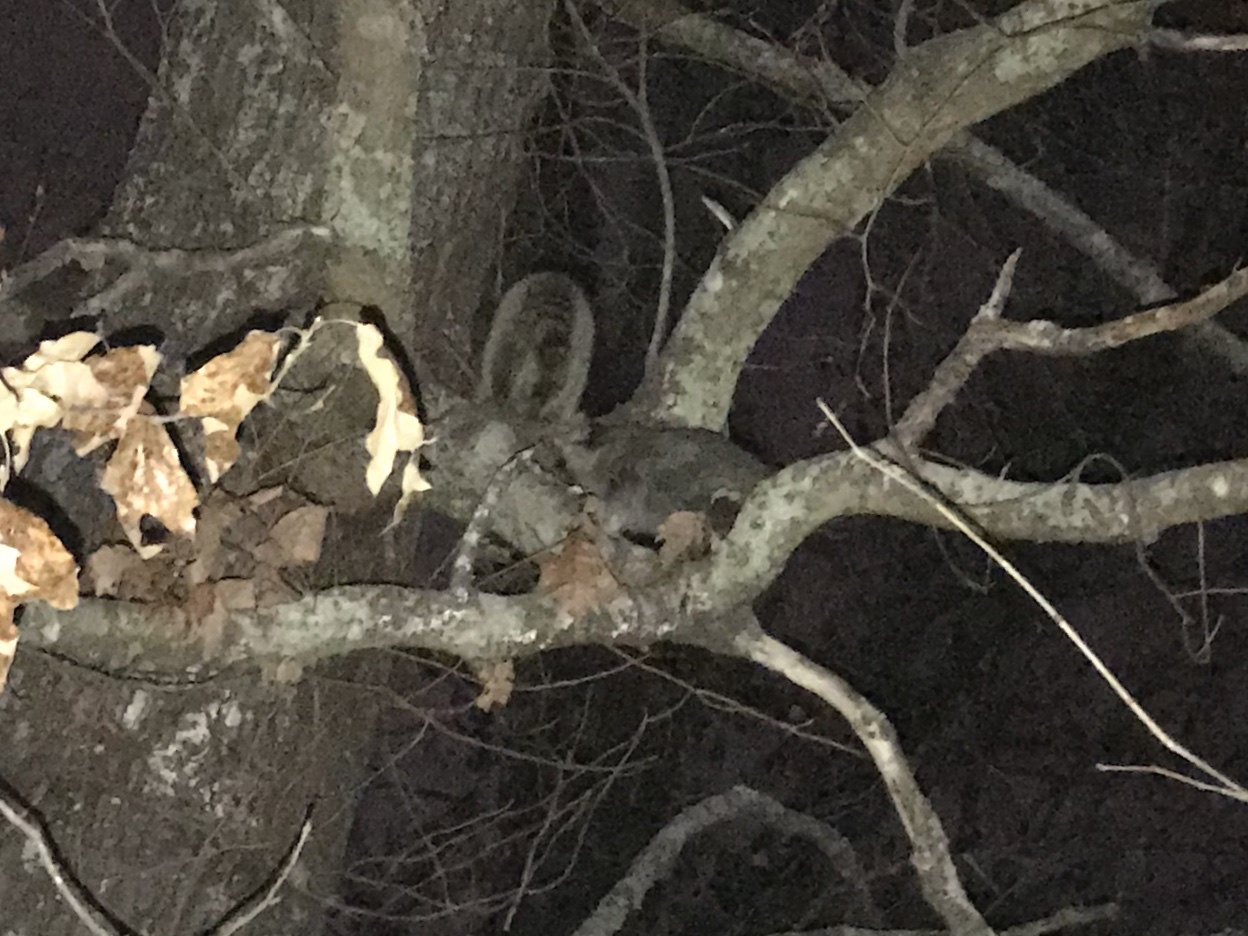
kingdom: Animalia
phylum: Chordata
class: Mammalia
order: Carnivora
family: Procyonidae
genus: Procyon
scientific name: Procyon lotor
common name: Raccoon
